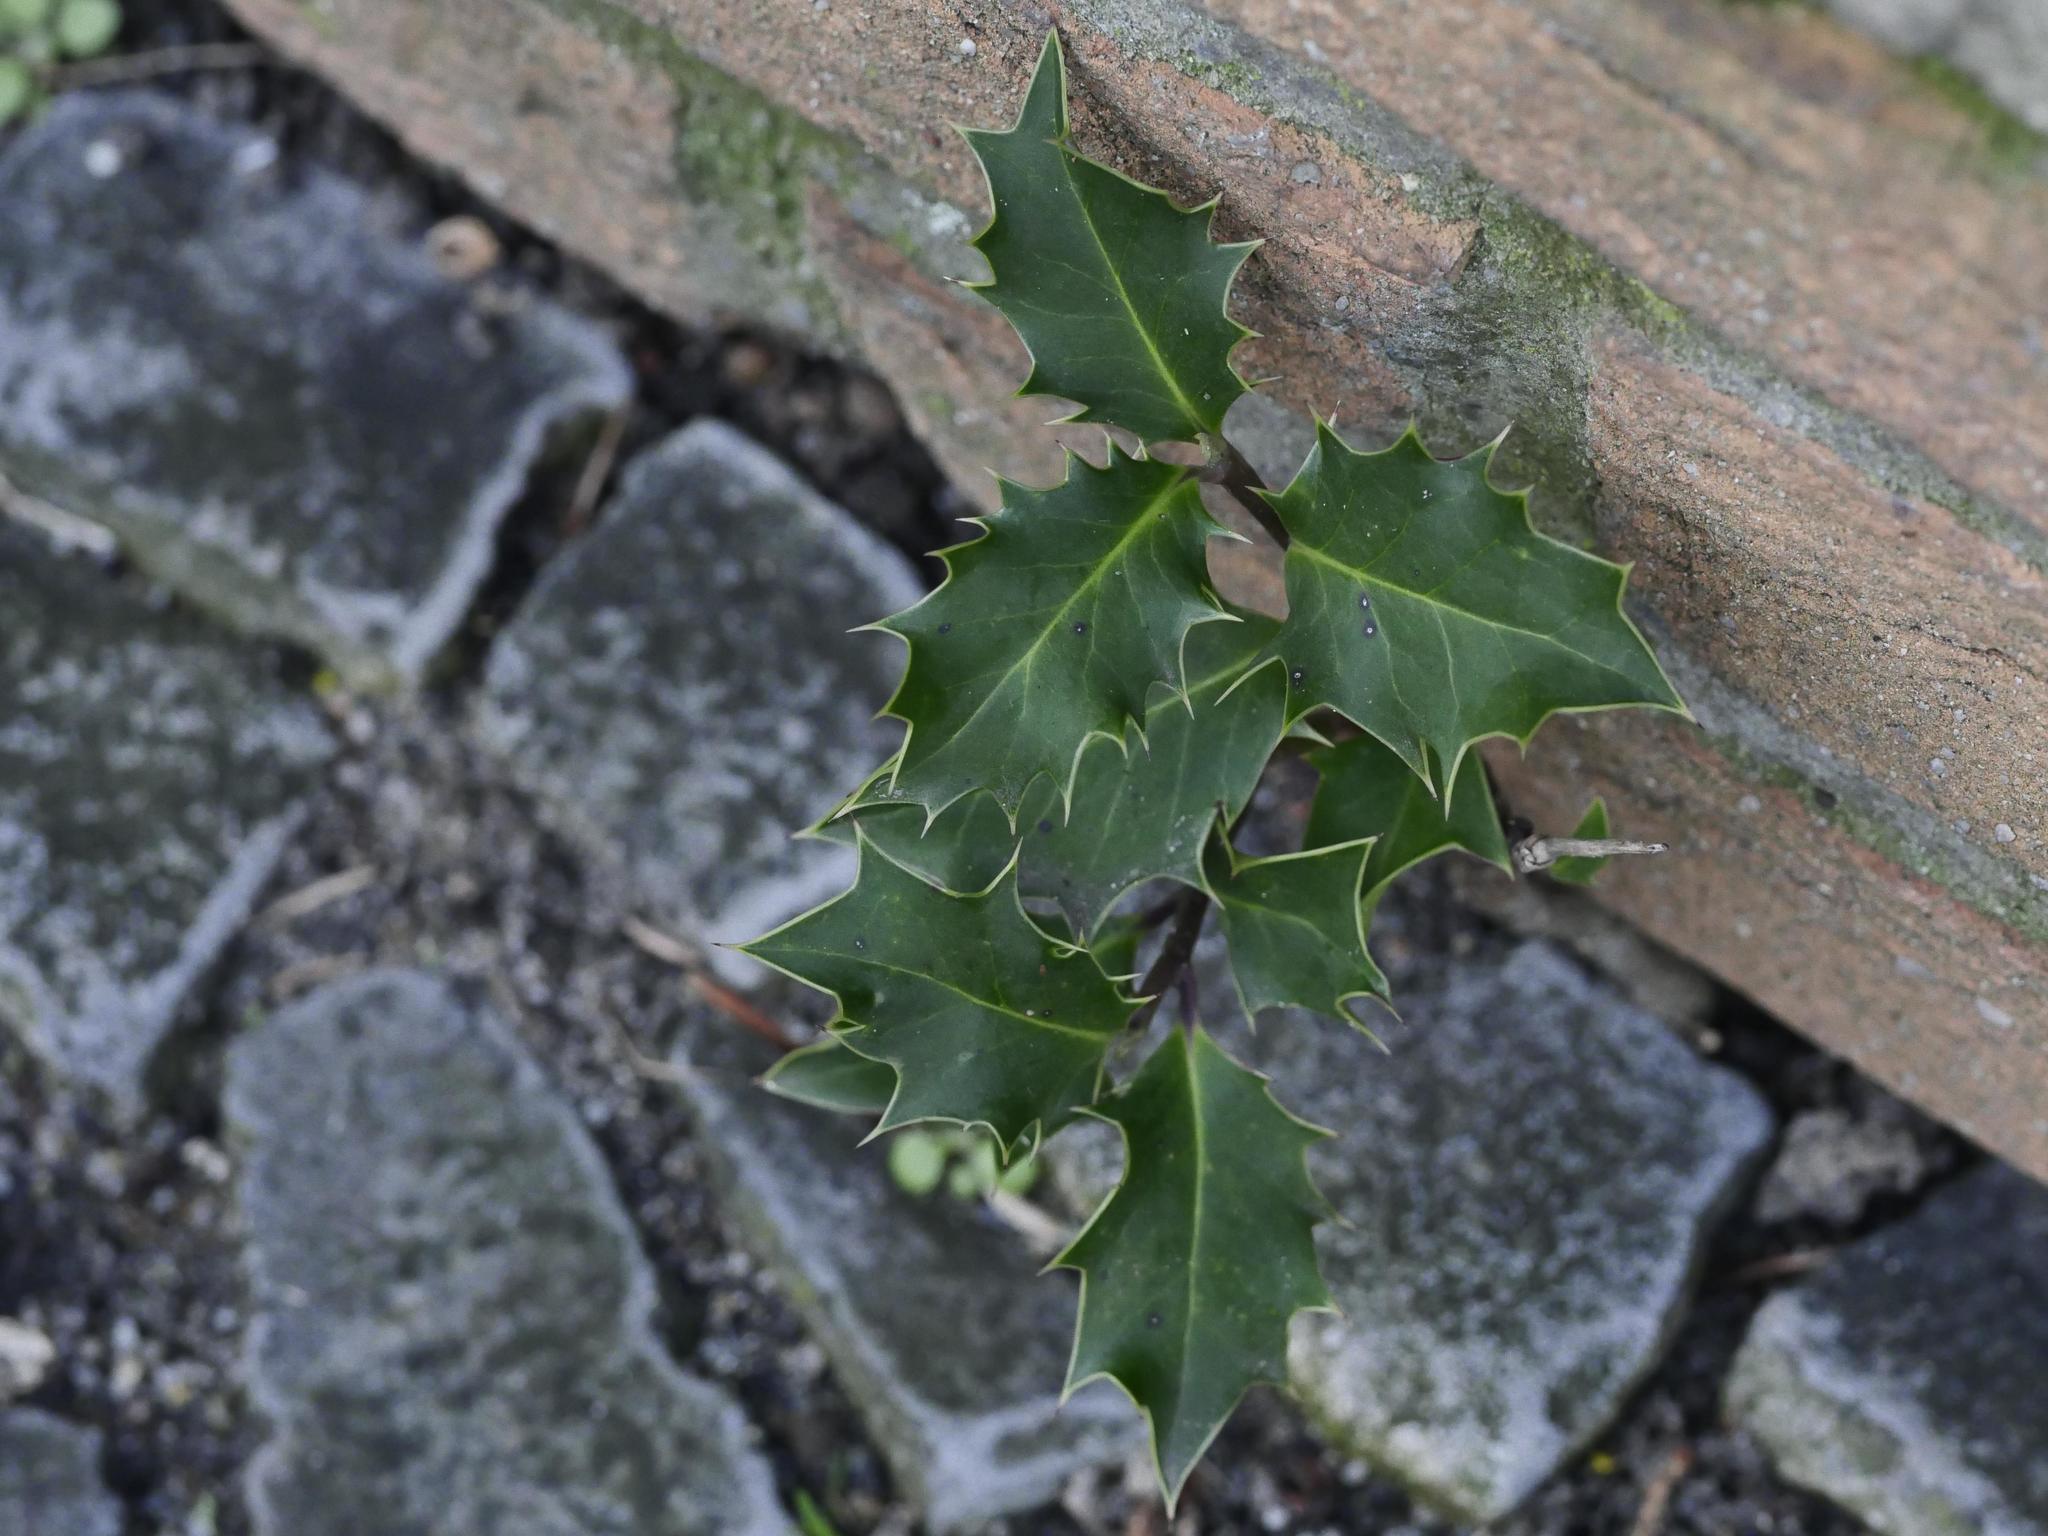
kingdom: Plantae
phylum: Tracheophyta
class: Magnoliopsida
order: Aquifoliales
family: Aquifoliaceae
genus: Ilex
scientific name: Ilex aquifolium
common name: English holly
